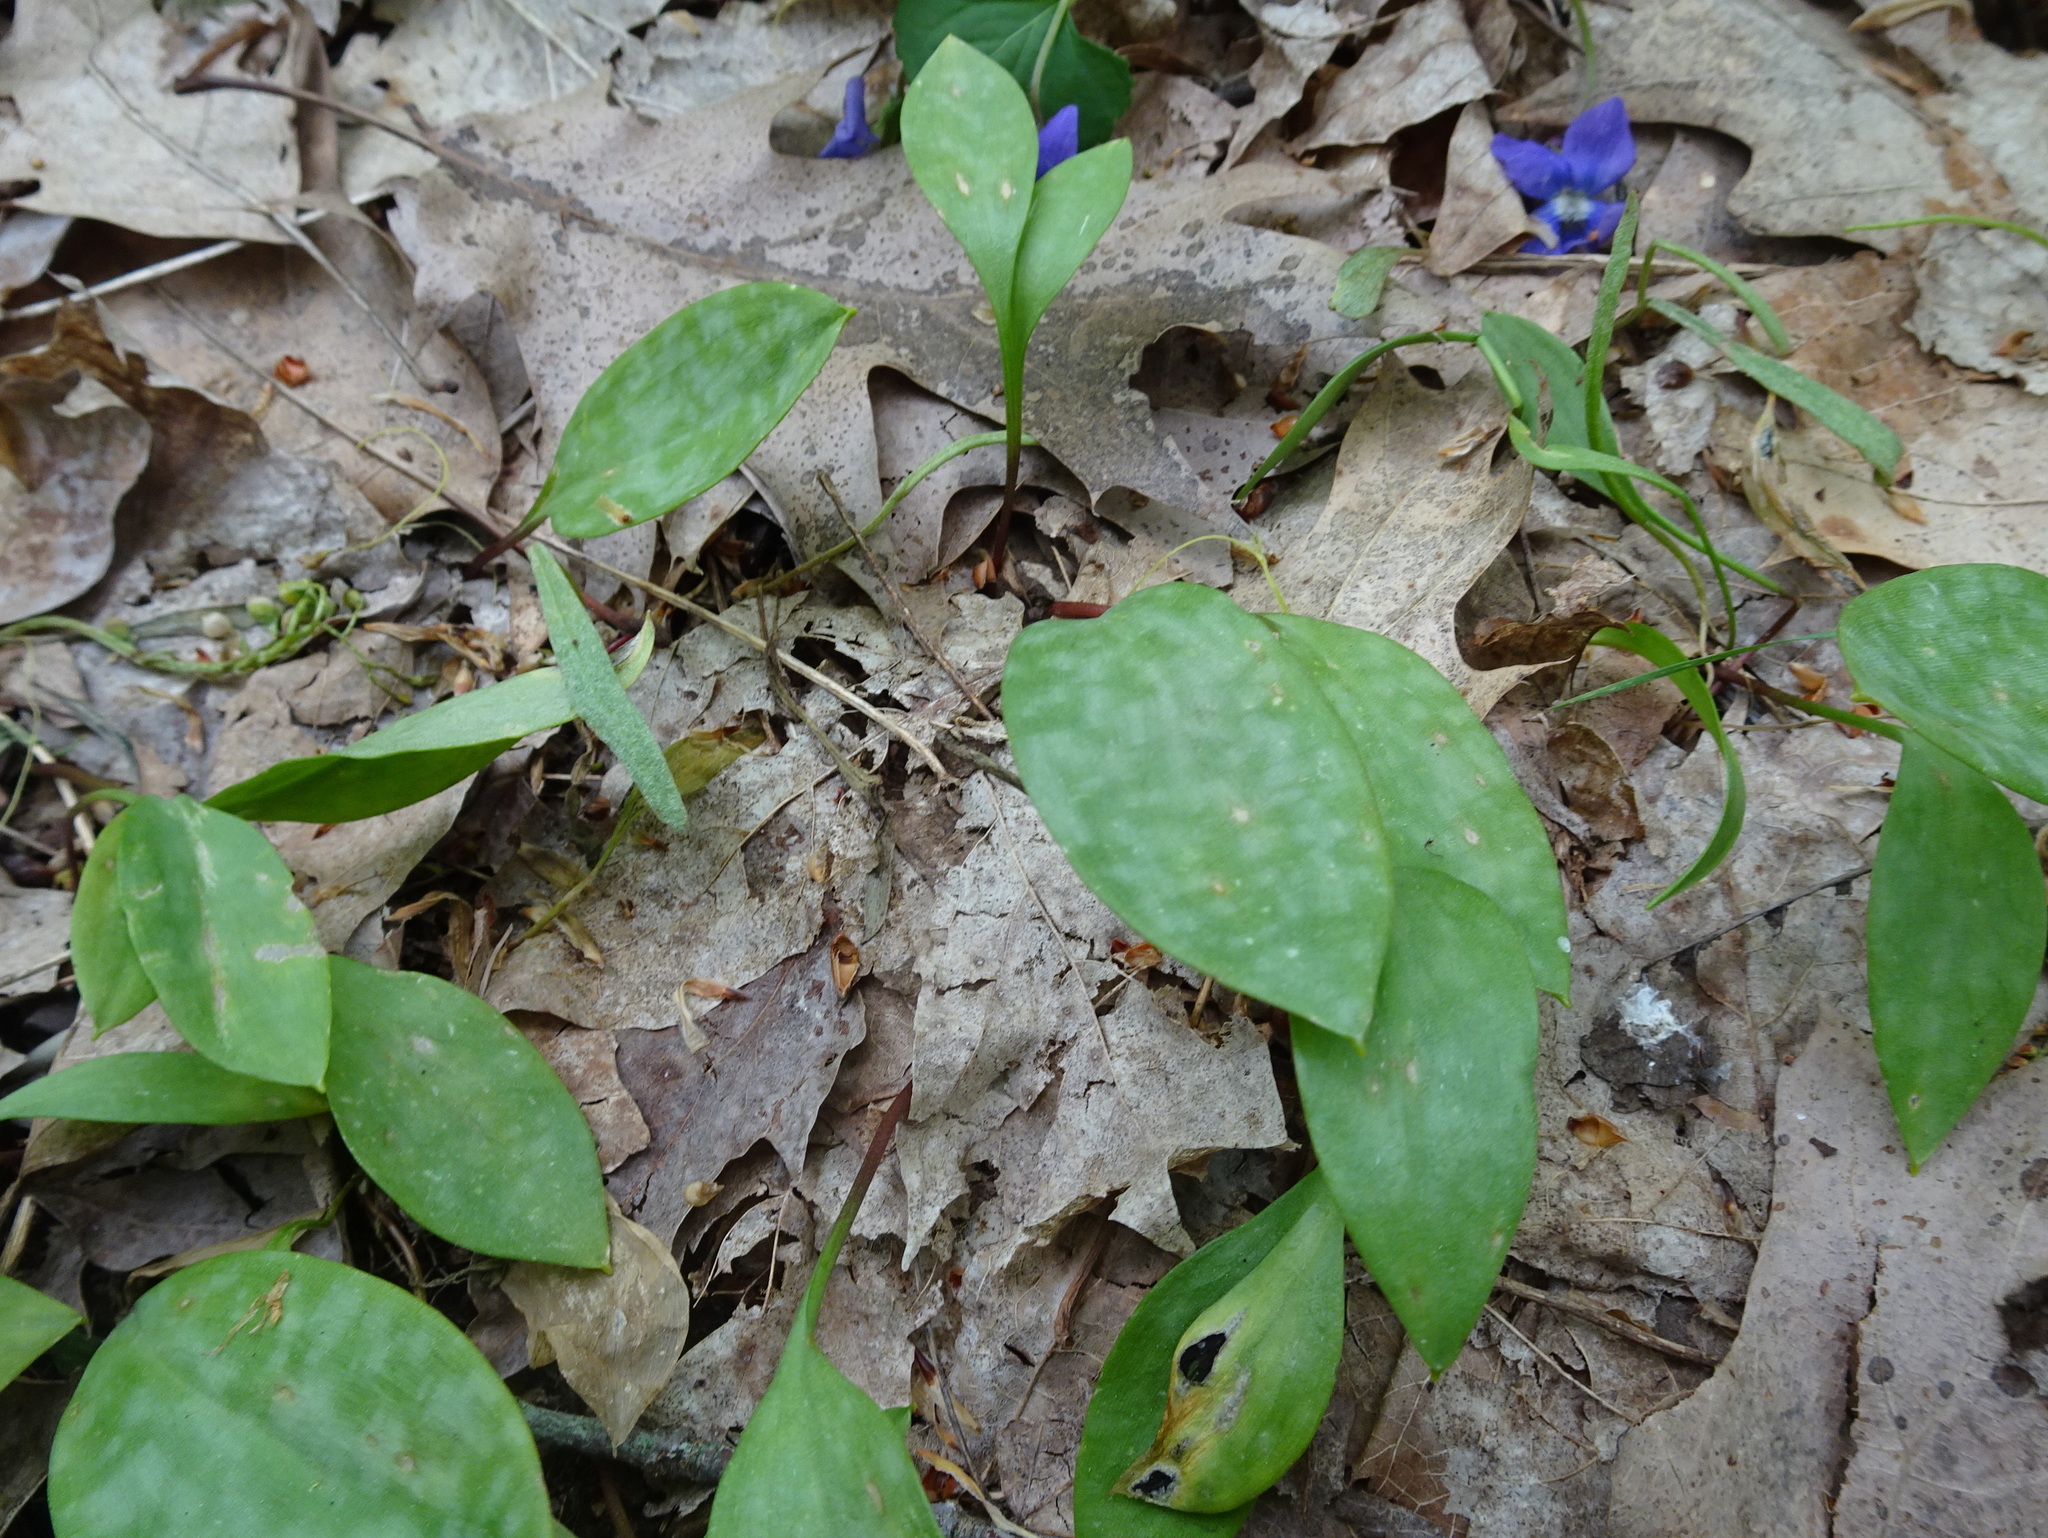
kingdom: Plantae
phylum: Tracheophyta
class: Liliopsida
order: Liliales
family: Liliaceae
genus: Erythronium
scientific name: Erythronium americanum
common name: Yellow adder's-tongue
